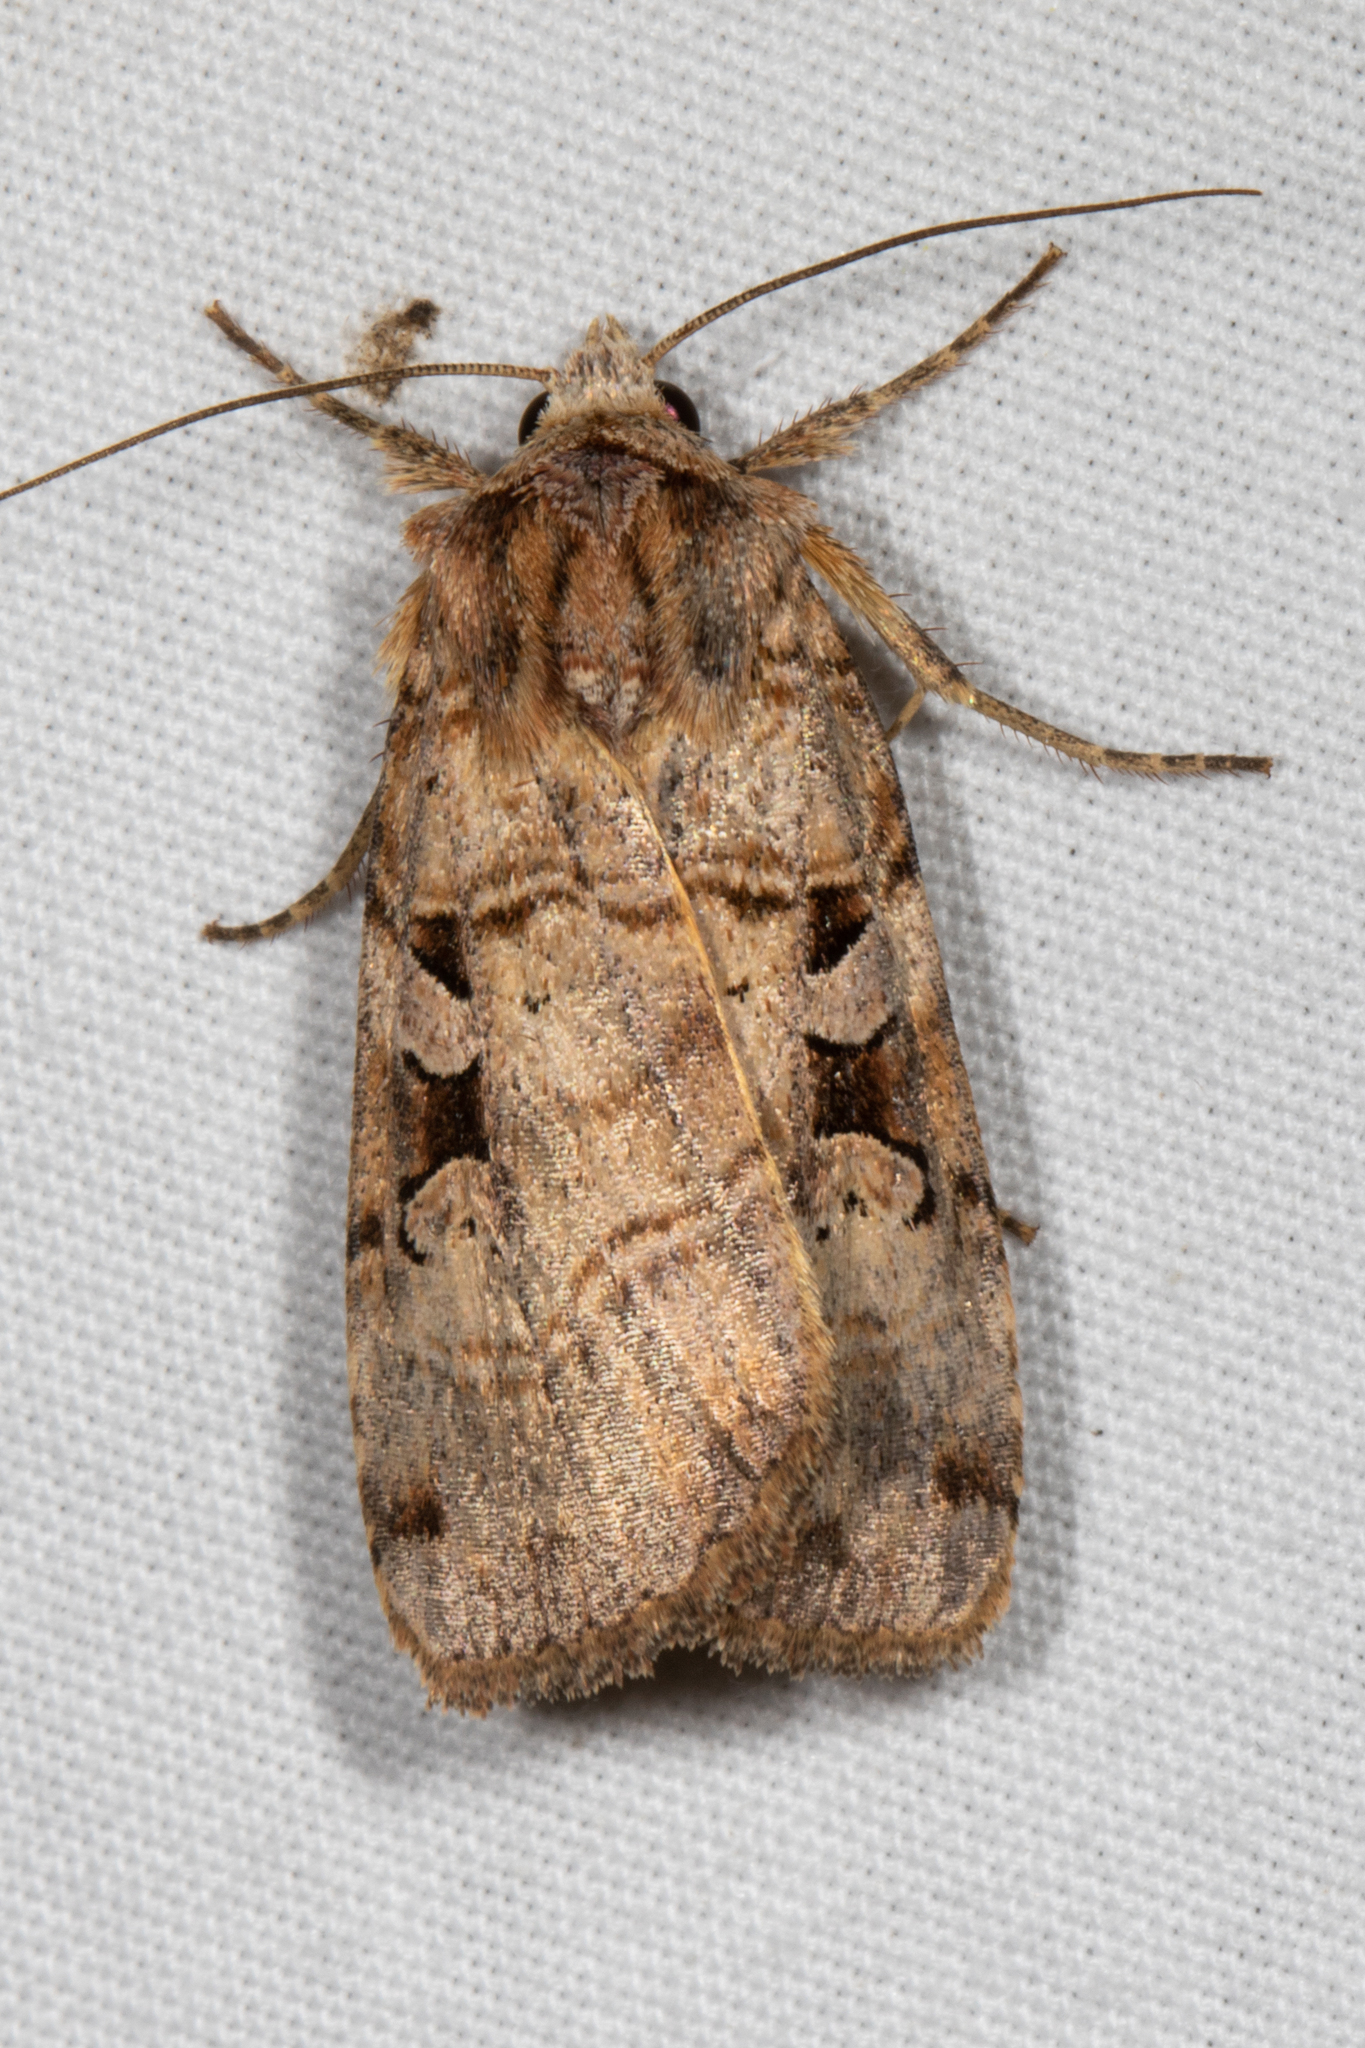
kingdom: Animalia
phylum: Arthropoda
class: Insecta
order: Lepidoptera
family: Noctuidae
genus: Xestia
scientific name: Xestia normaniana
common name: Norman's dart moth
